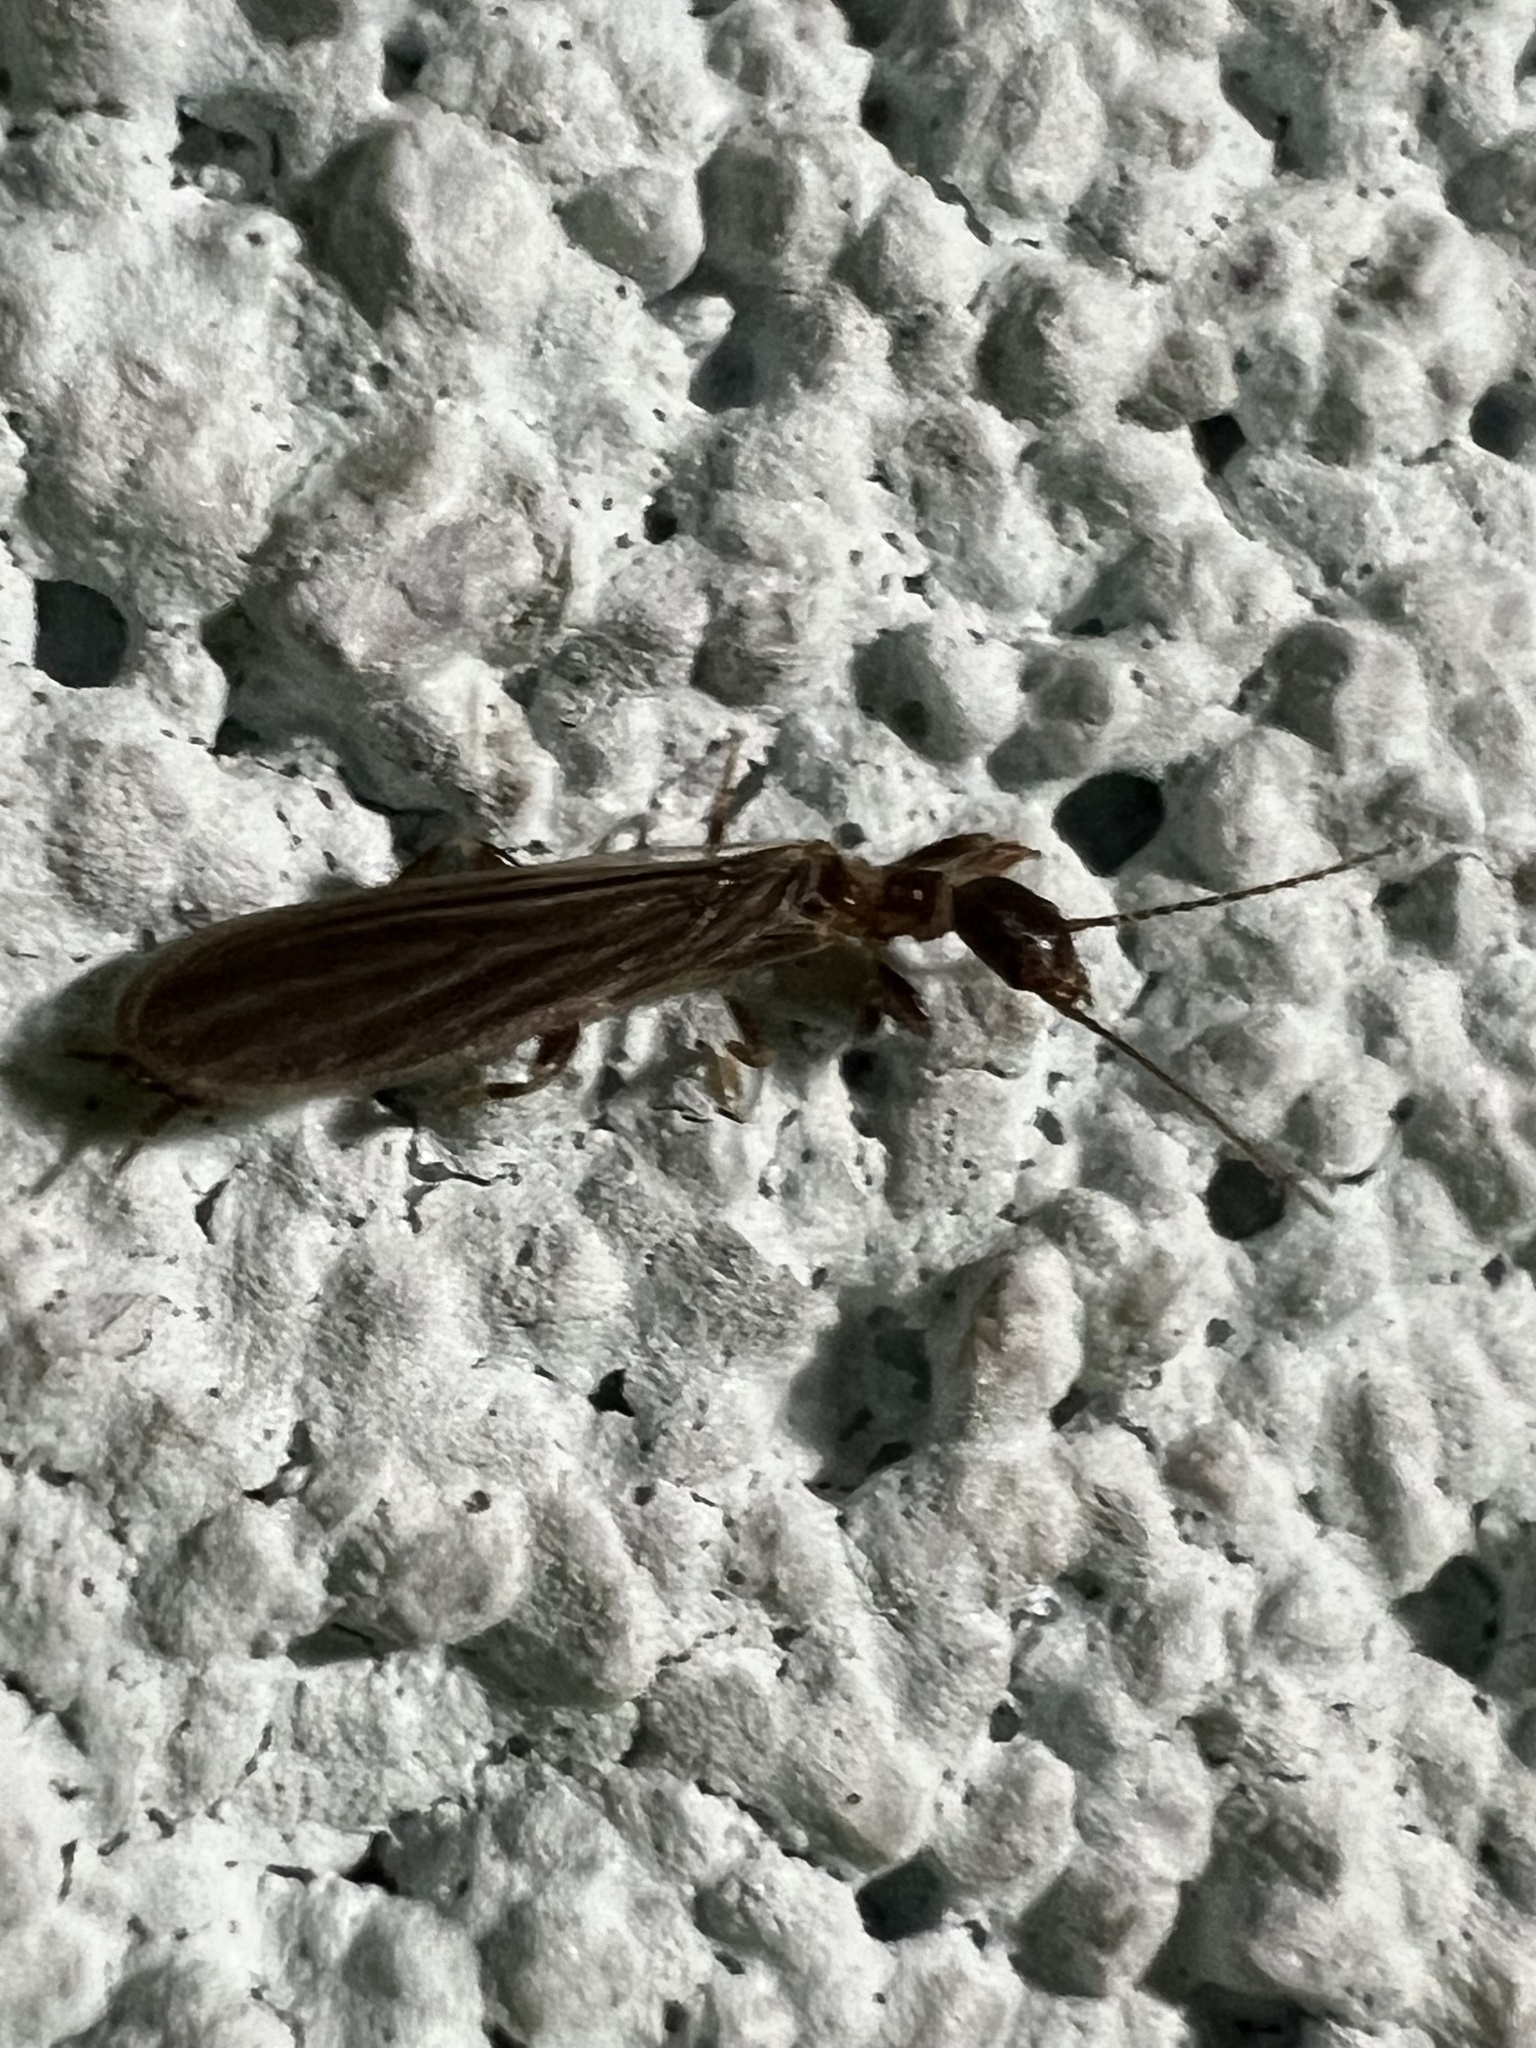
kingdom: Animalia
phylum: Arthropoda
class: Insecta
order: Embioptera
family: Oligotomidae
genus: Oligotoma
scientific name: Oligotoma nigra
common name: Black webspinner
